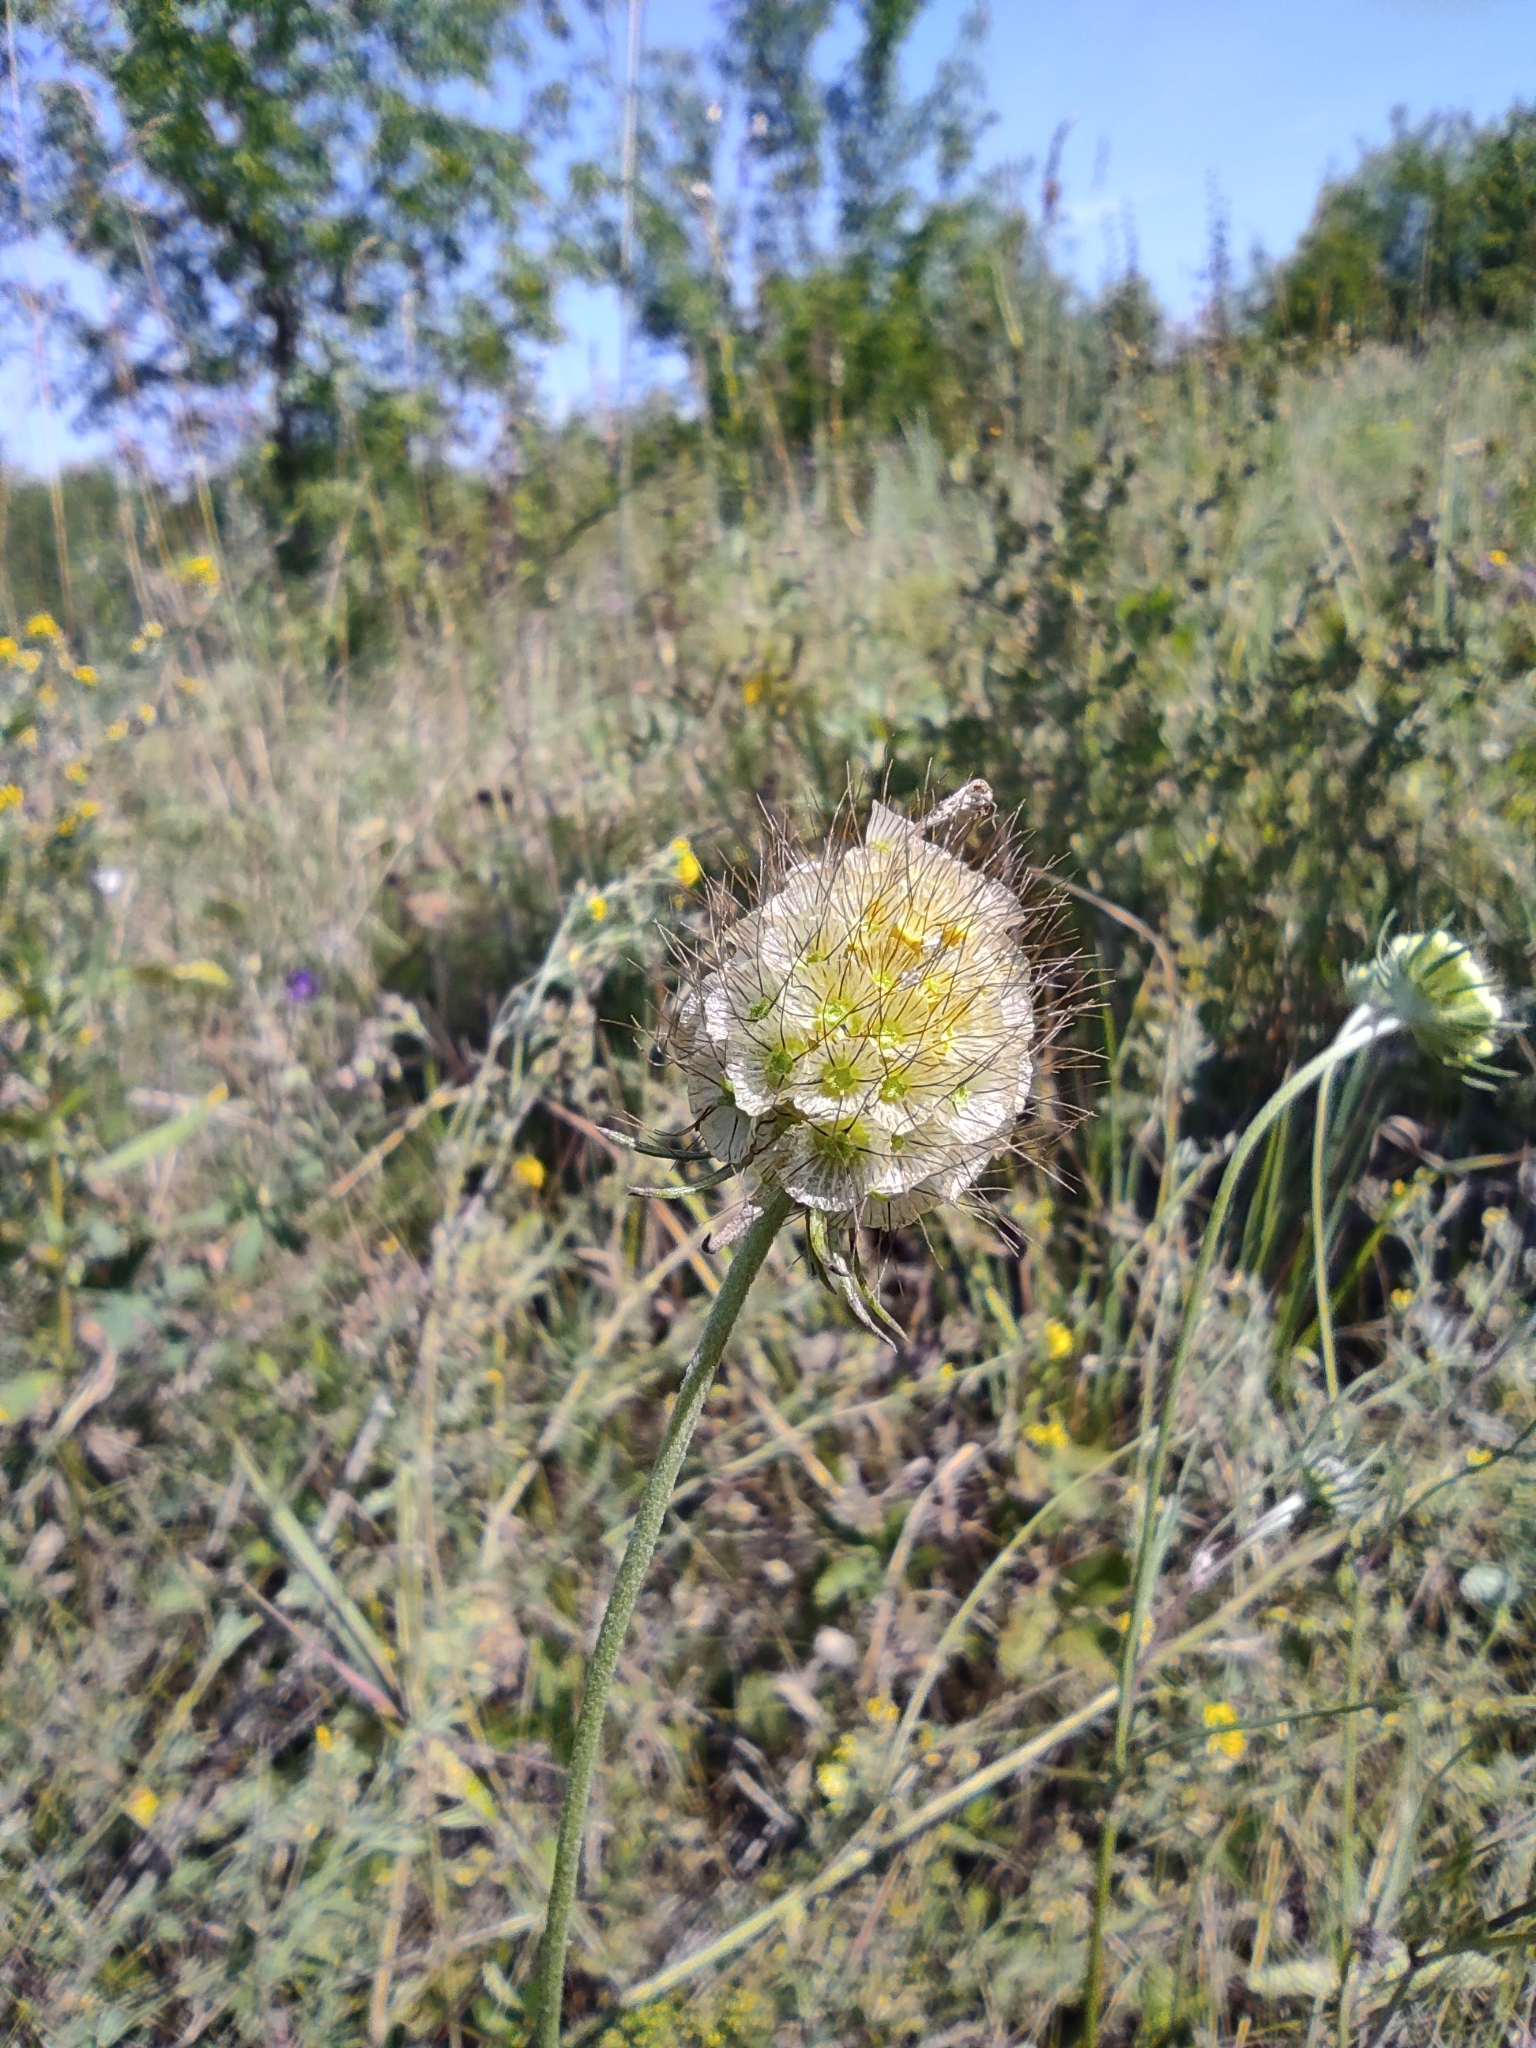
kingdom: Plantae
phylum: Tracheophyta
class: Magnoliopsida
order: Dipsacales
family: Caprifoliaceae
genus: Scabiosa
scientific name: Scabiosa ochroleuca
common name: Cream pincushions
